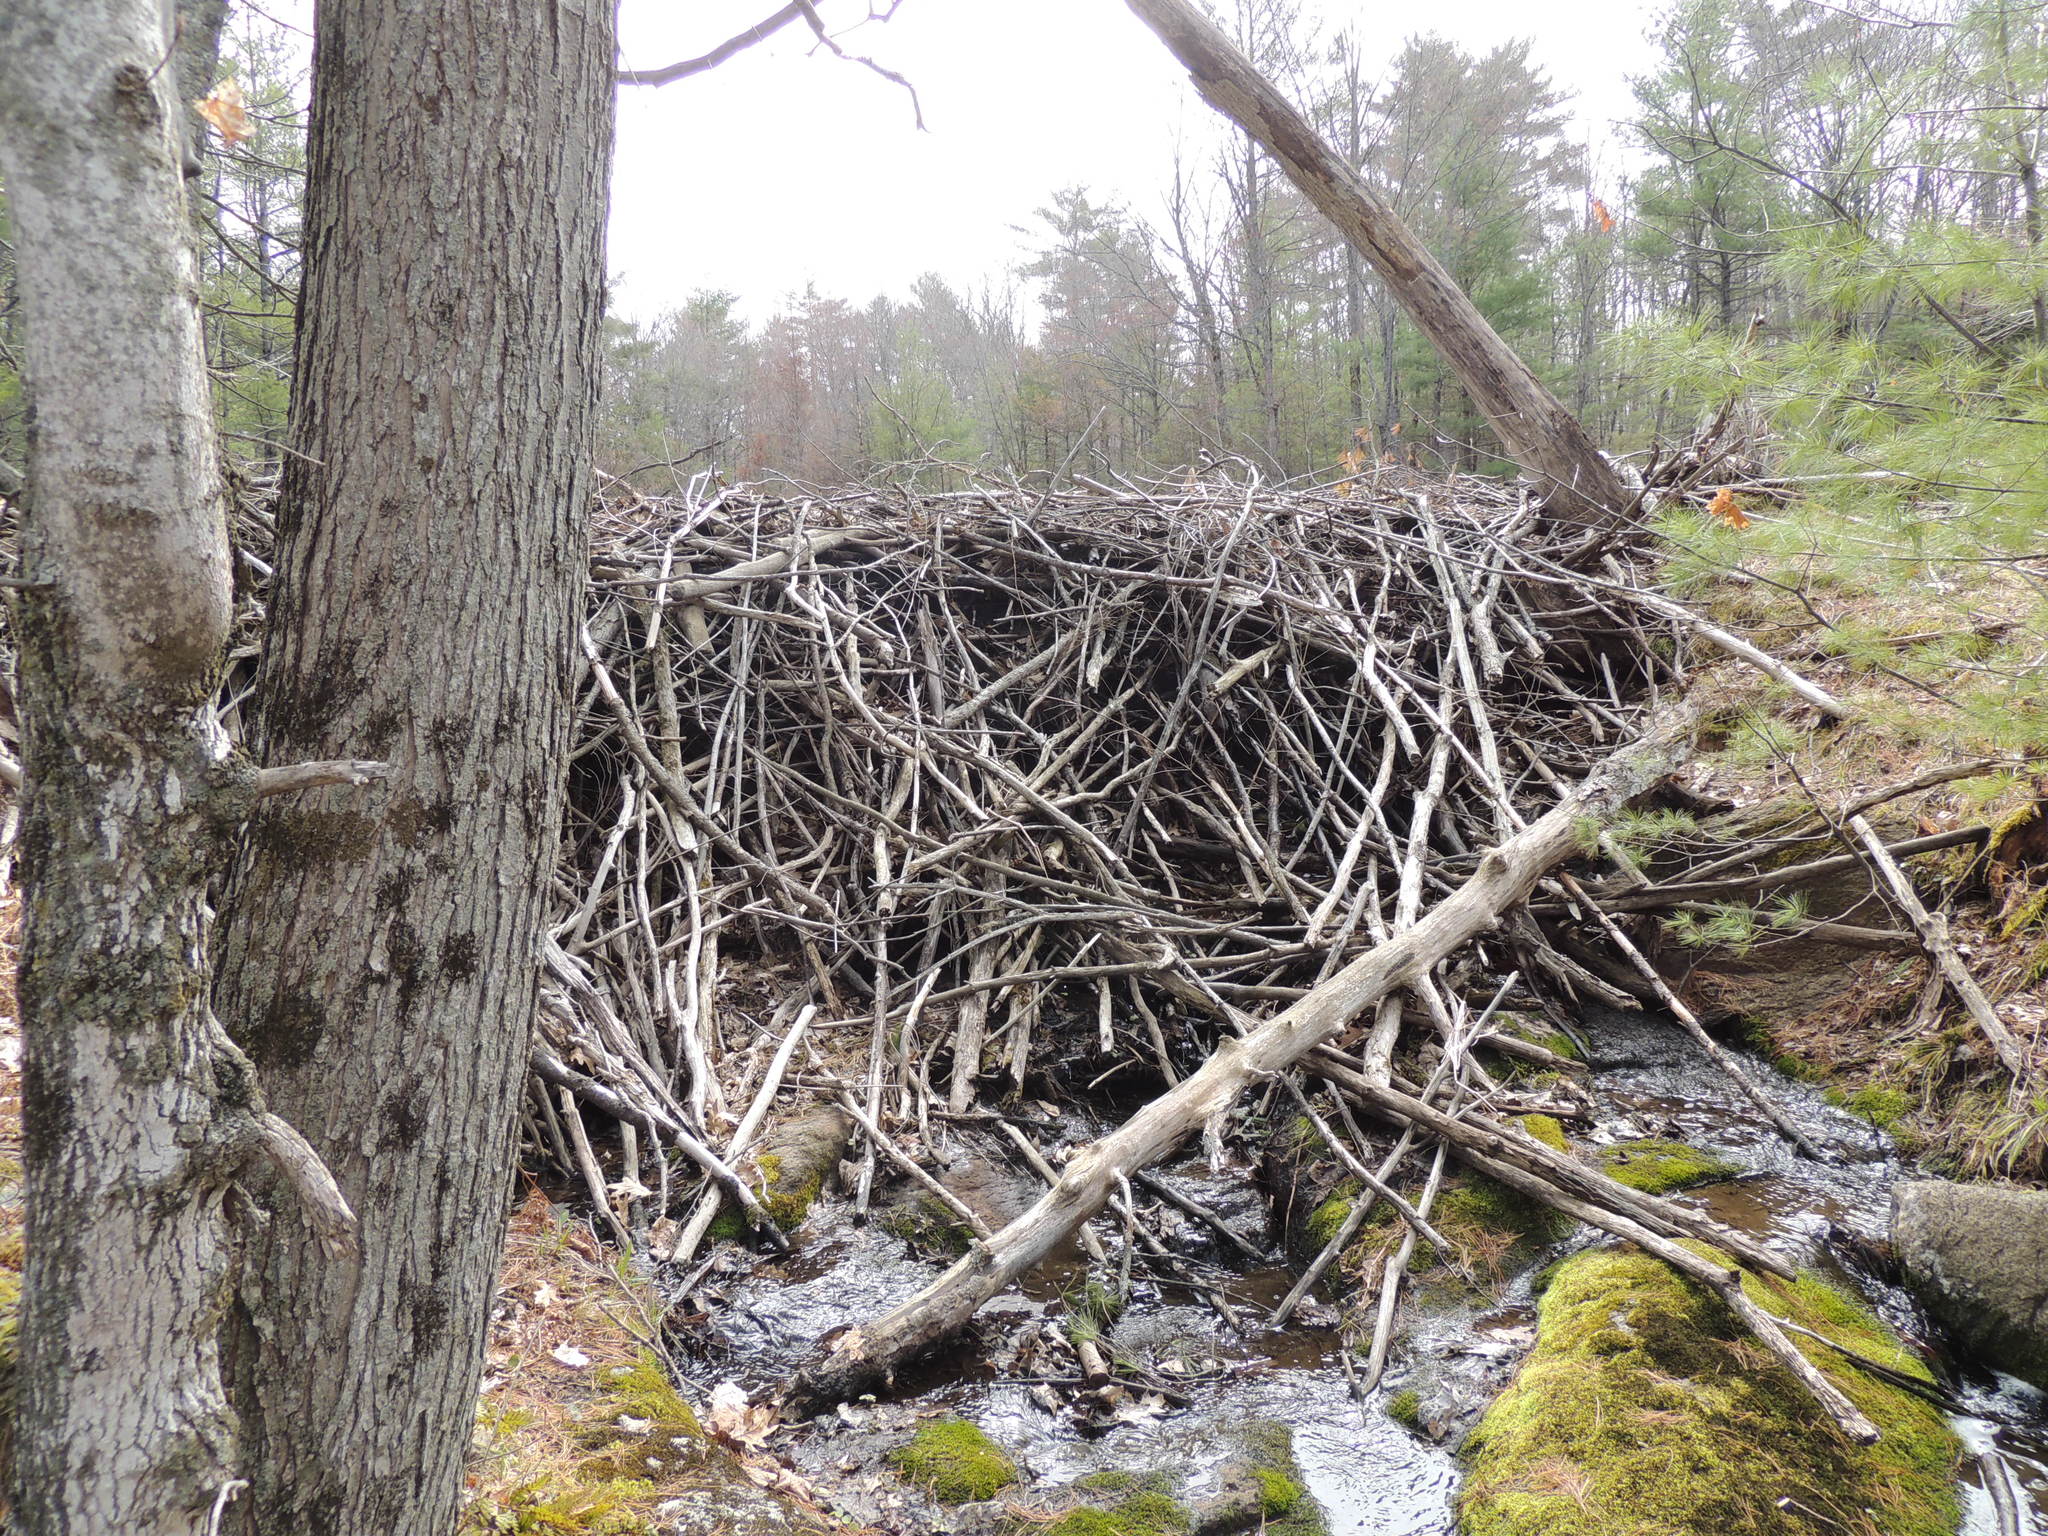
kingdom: Animalia
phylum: Chordata
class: Mammalia
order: Rodentia
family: Castoridae
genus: Castor
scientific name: Castor canadensis
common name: American beaver
